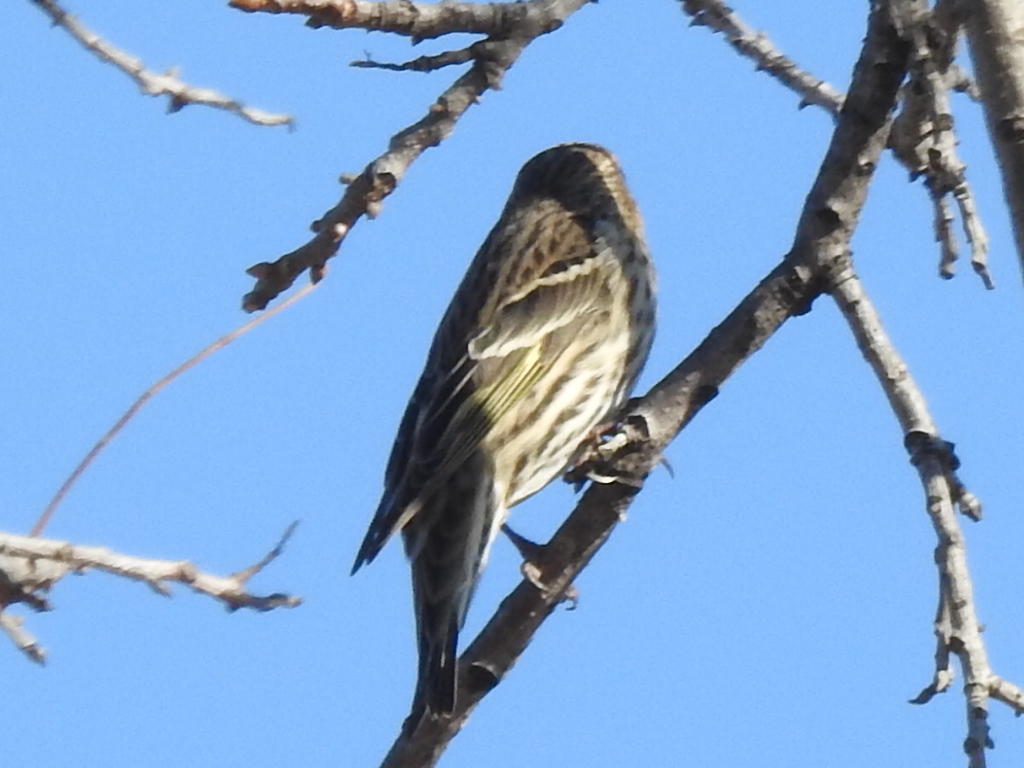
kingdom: Animalia
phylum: Chordata
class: Aves
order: Passeriformes
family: Fringillidae
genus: Spinus
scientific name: Spinus pinus
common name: Pine siskin
